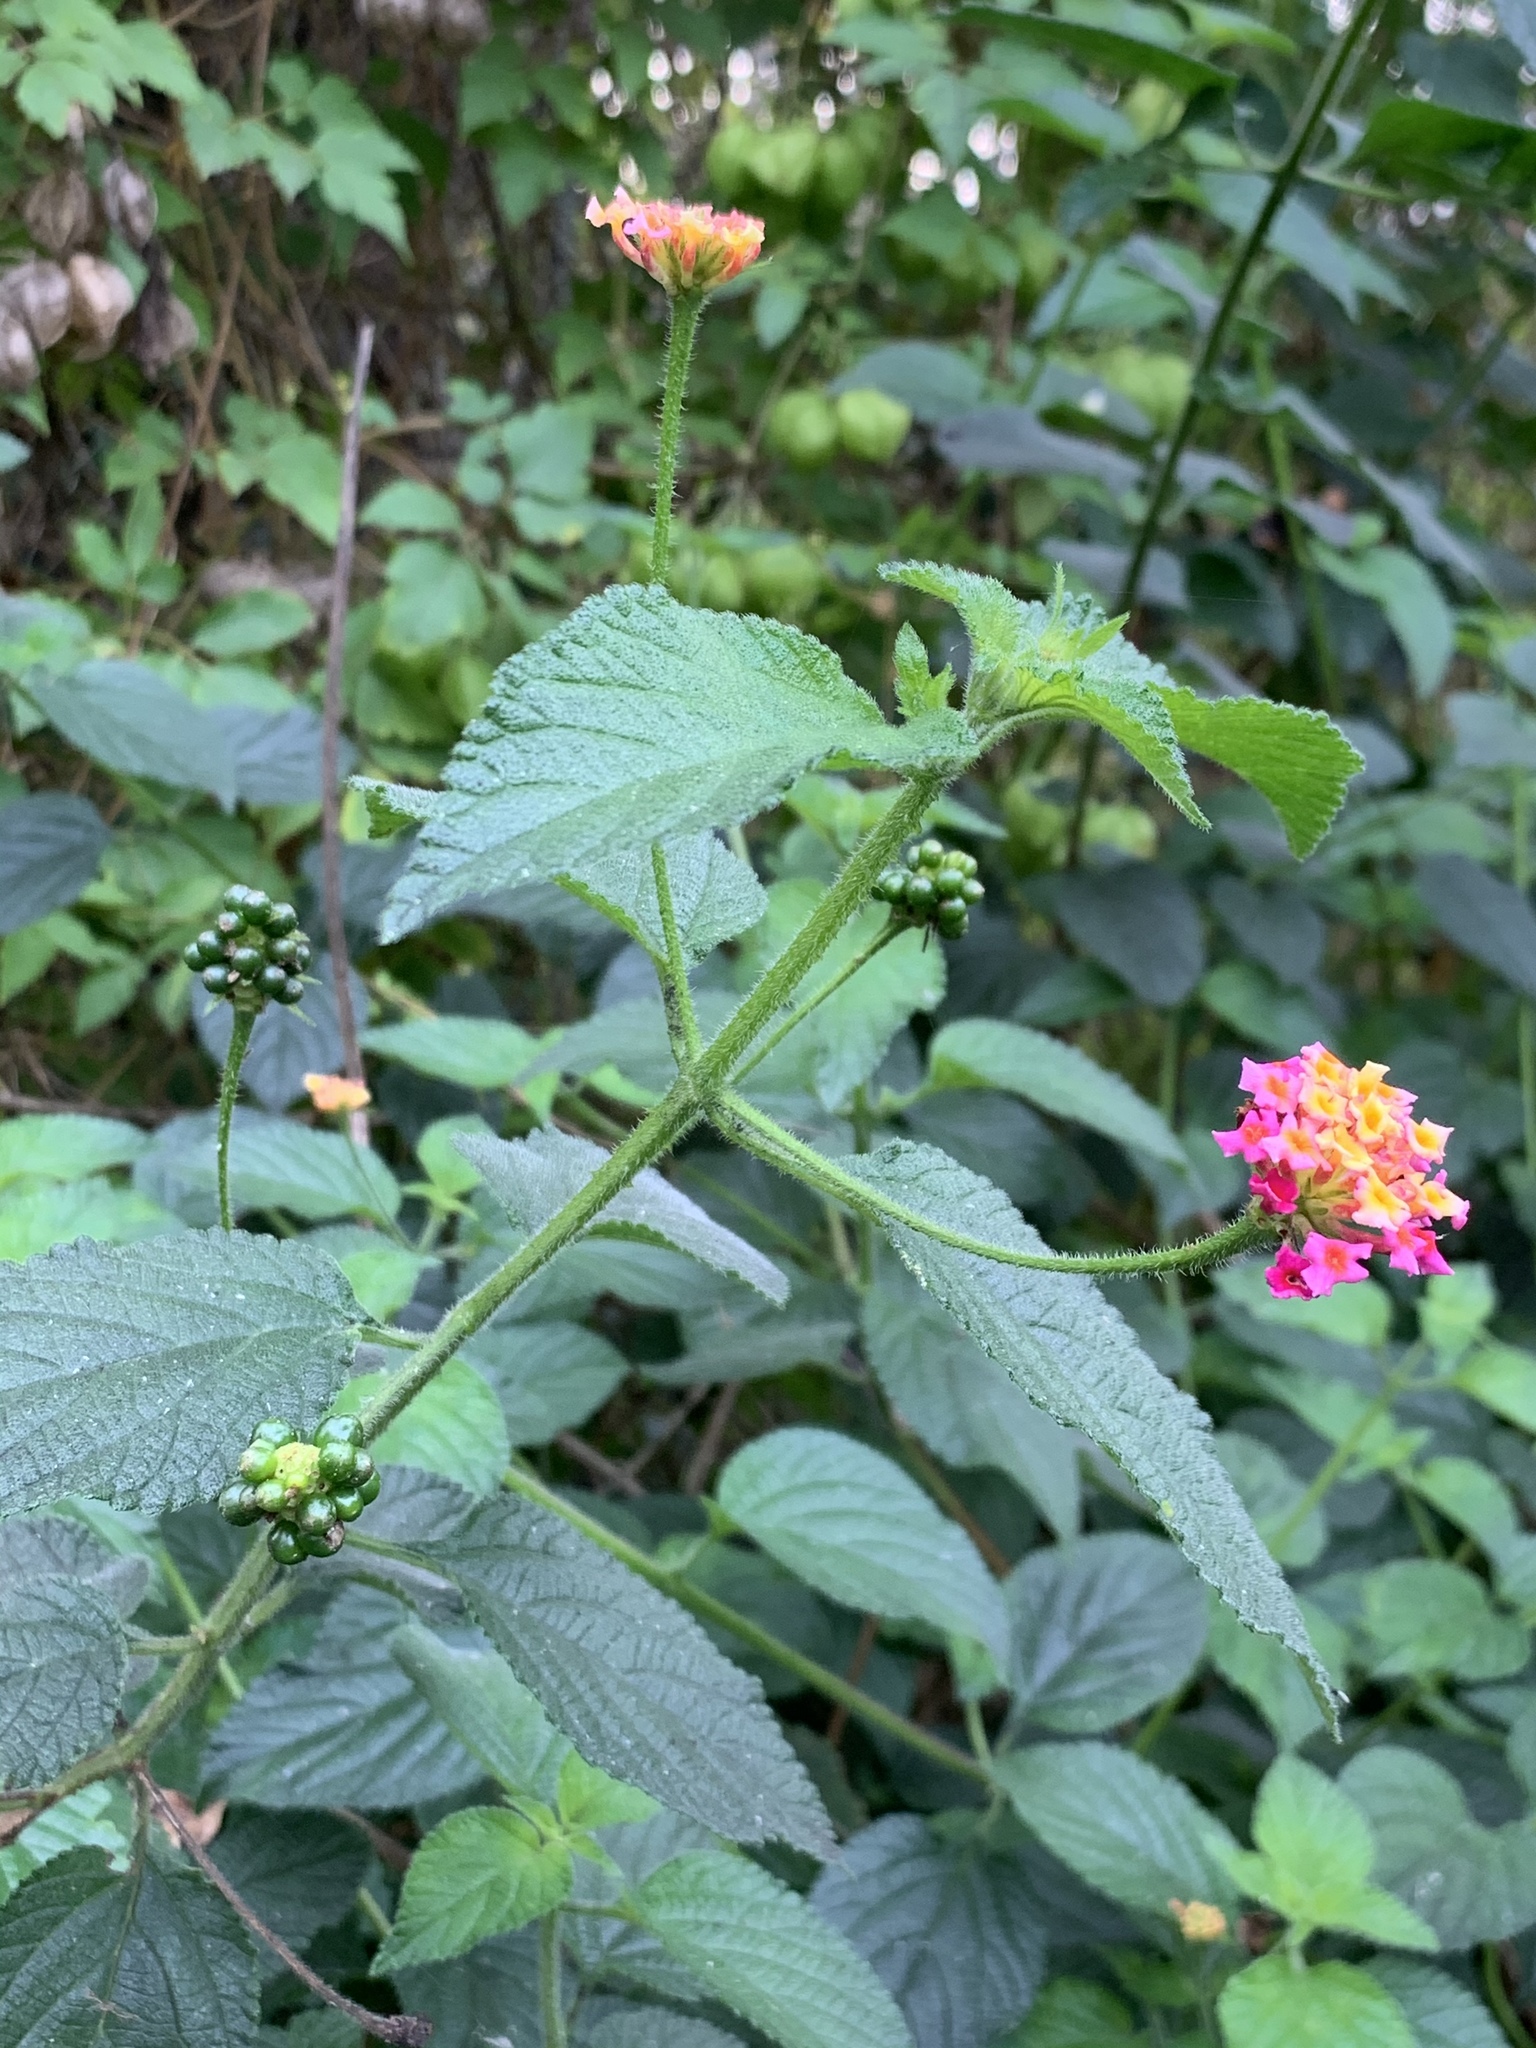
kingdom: Plantae
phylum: Tracheophyta
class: Magnoliopsida
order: Lamiales
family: Verbenaceae
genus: Lantana
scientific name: Lantana camara
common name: Lantana
